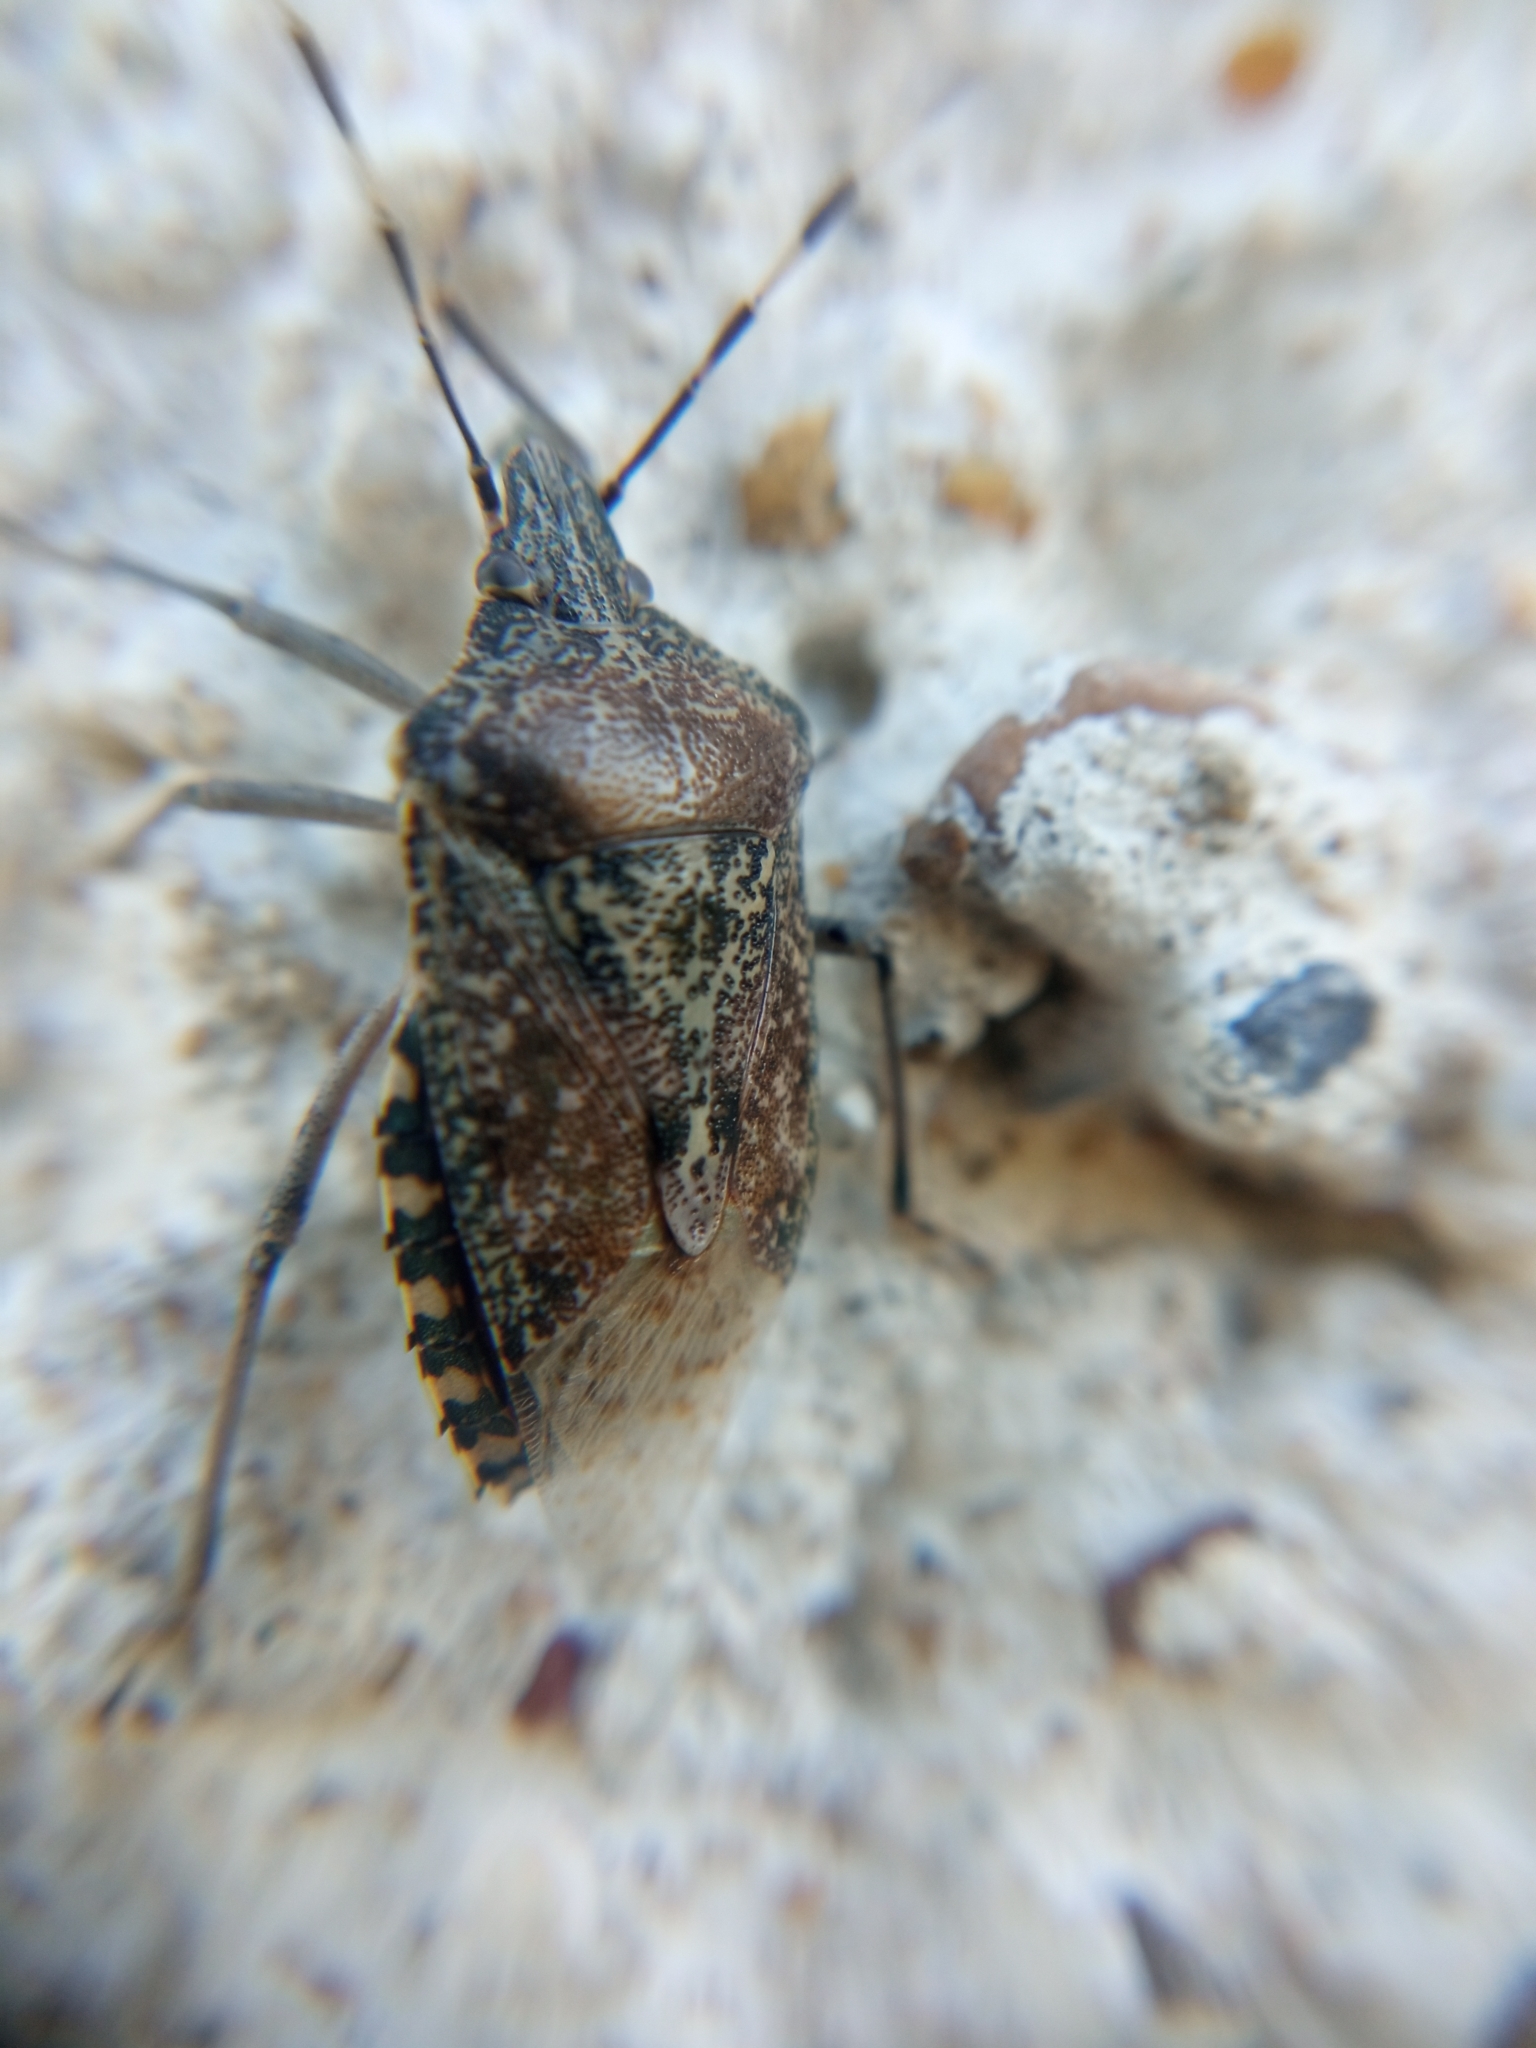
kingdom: Animalia
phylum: Arthropoda
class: Insecta
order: Hemiptera
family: Pentatomidae
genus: Rhaphigaster
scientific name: Rhaphigaster nebulosa
